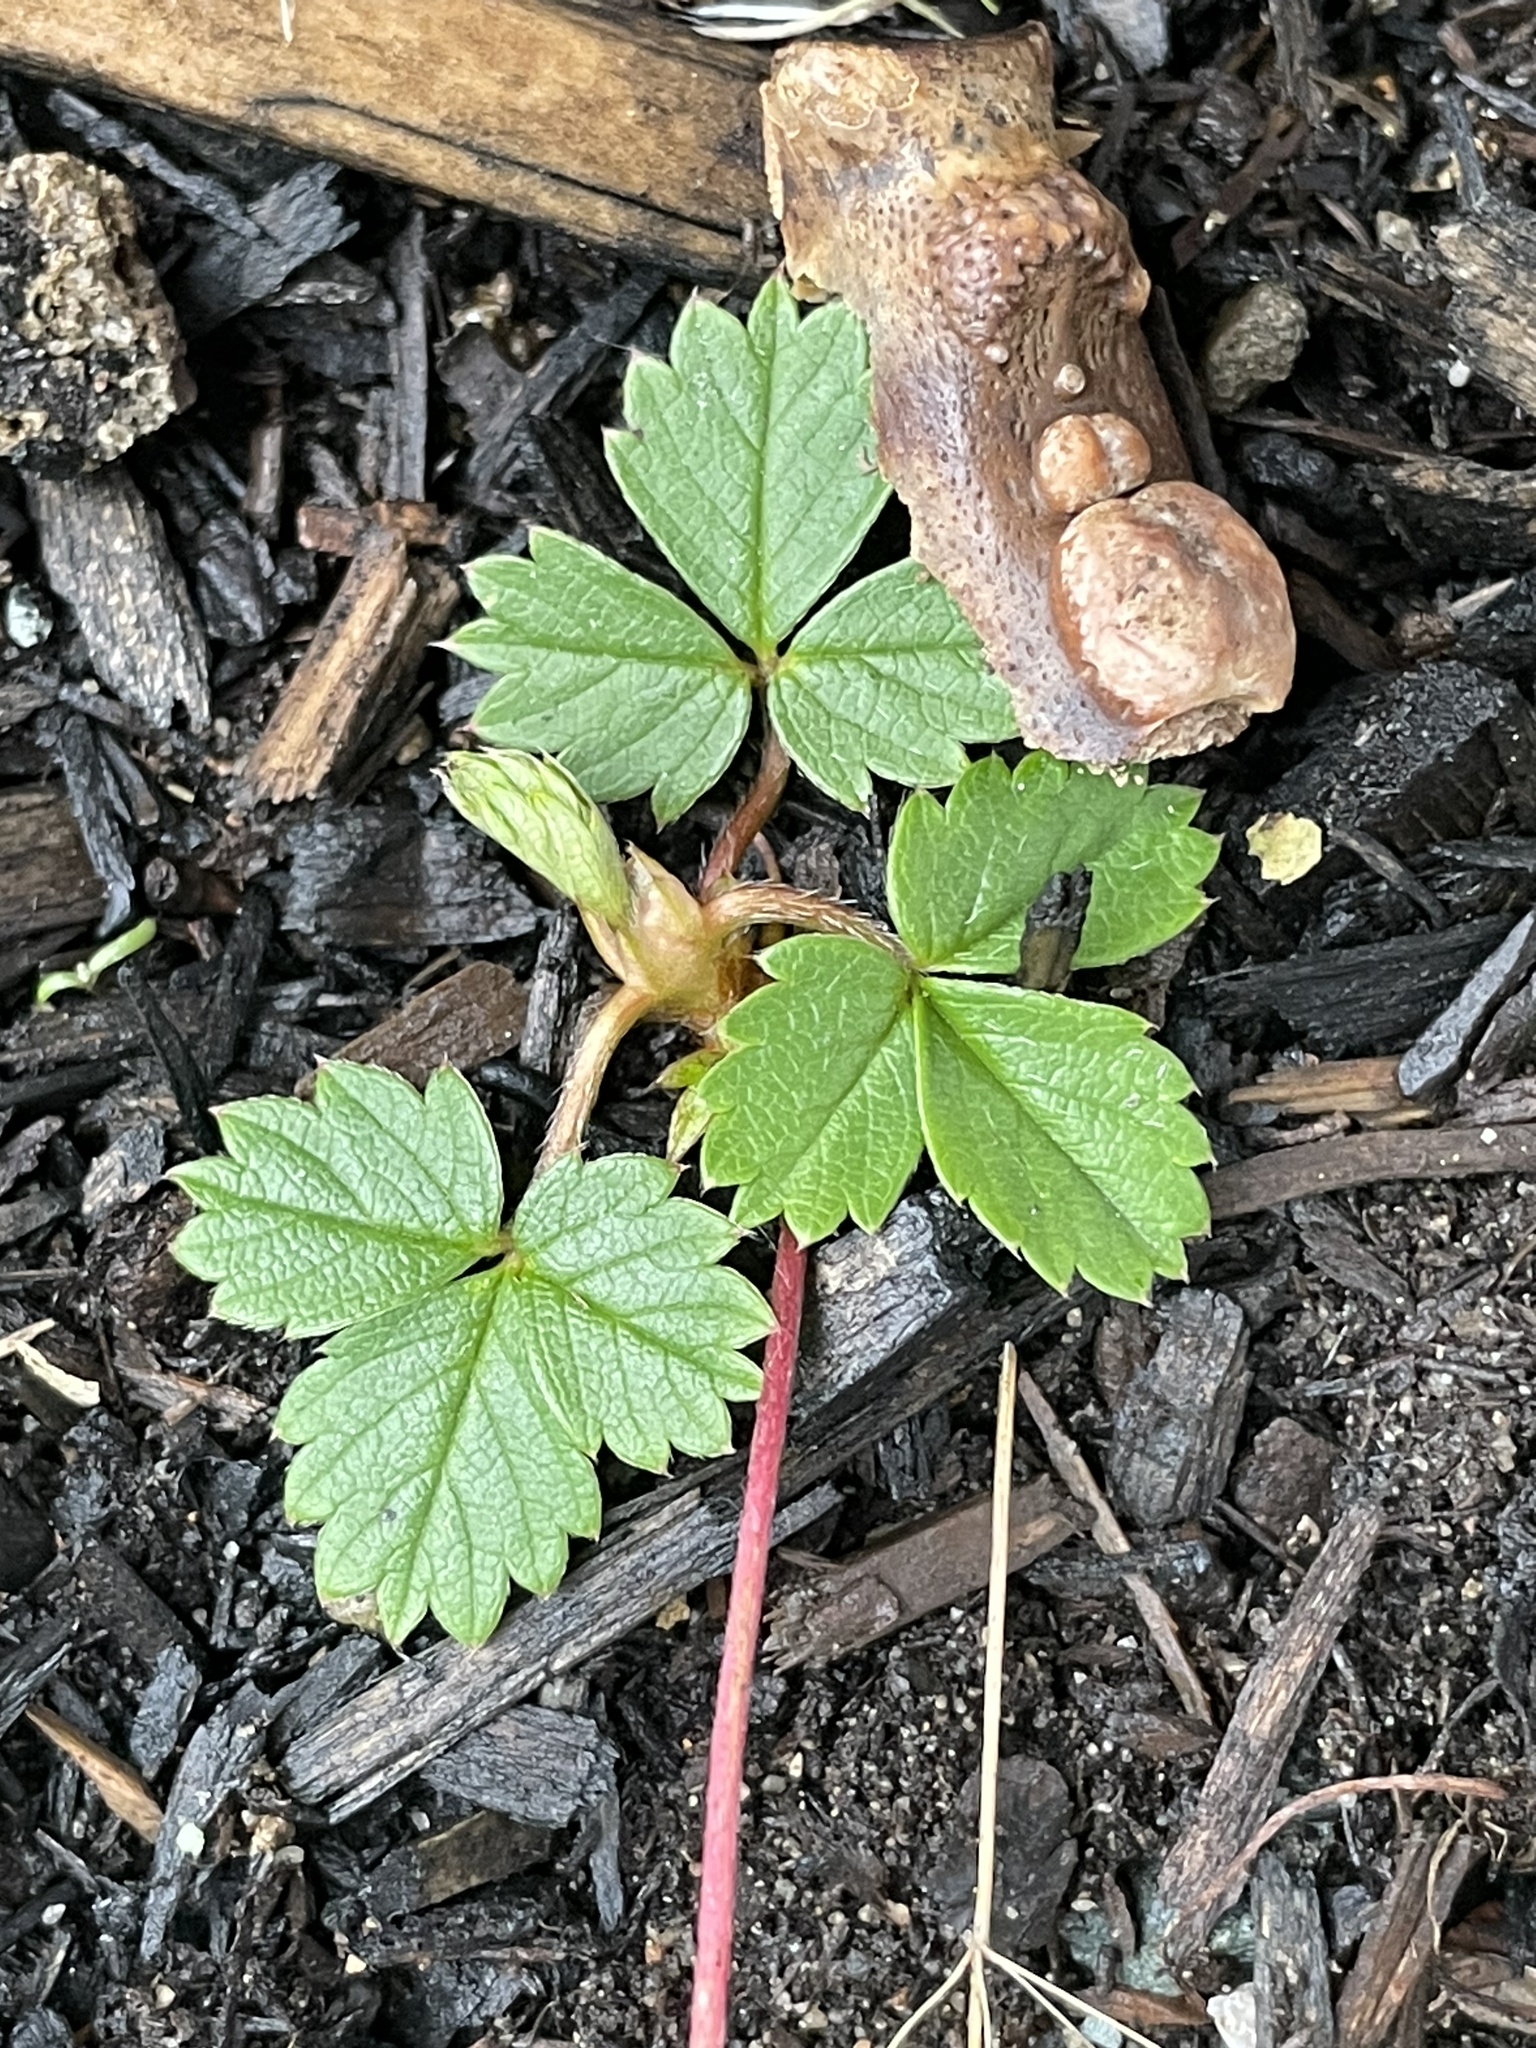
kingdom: Plantae
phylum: Tracheophyta
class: Magnoliopsida
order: Rosales
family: Rosaceae
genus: Fragaria
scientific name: Fragaria virginiana
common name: Thickleaved wild strawberry
